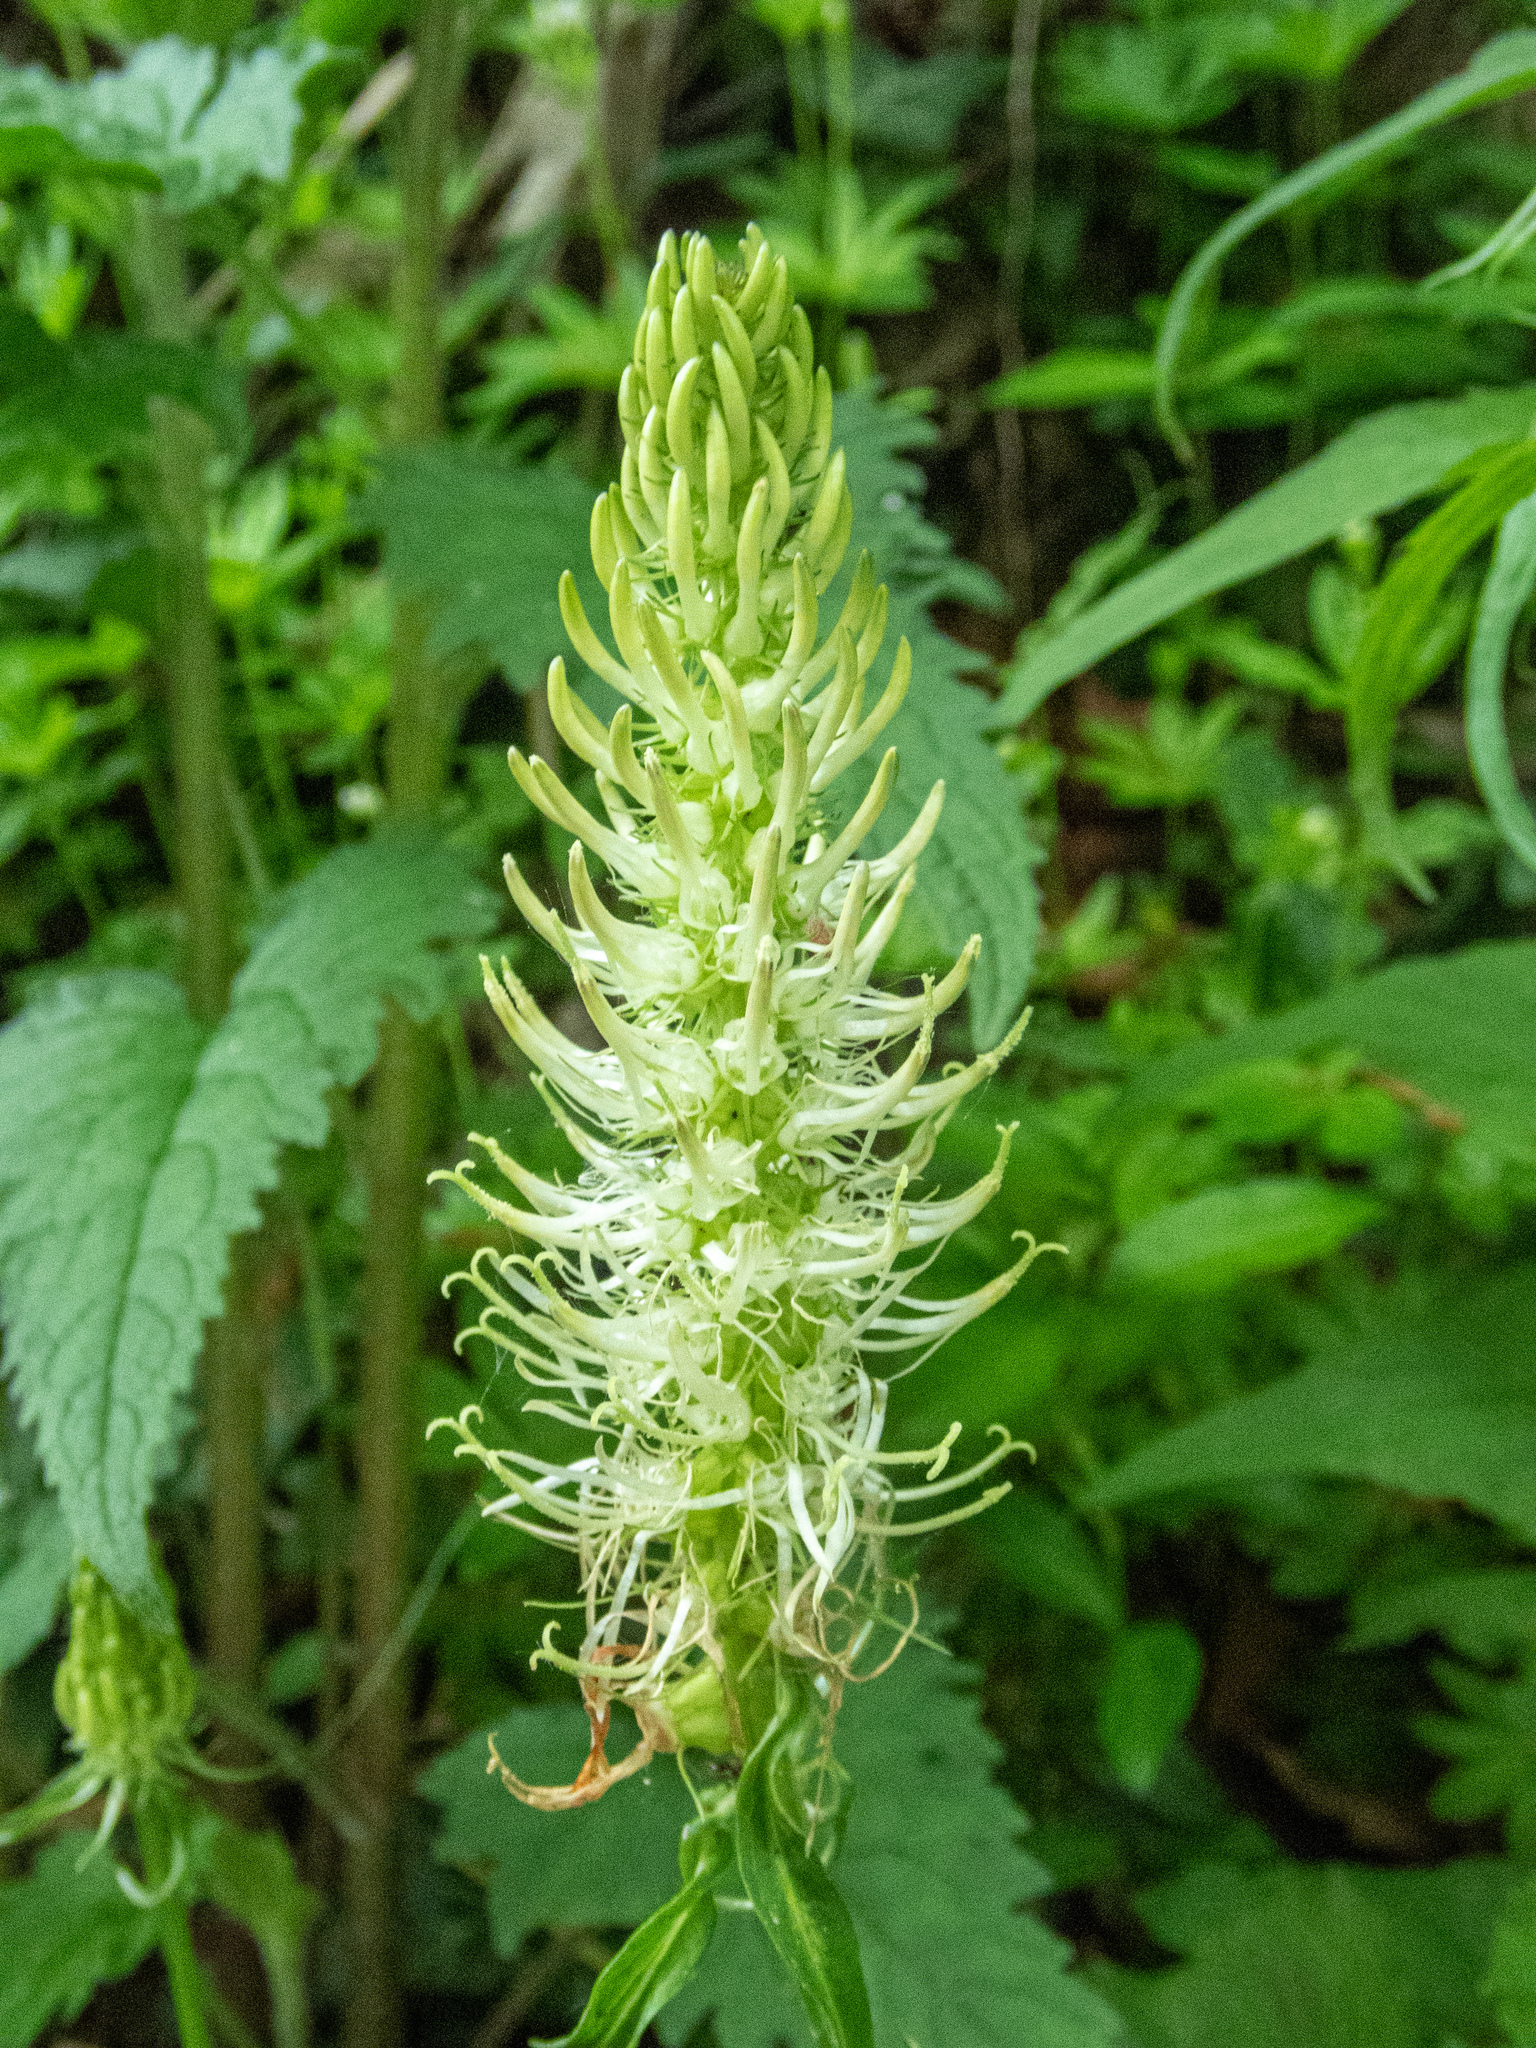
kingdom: Plantae
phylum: Tracheophyta
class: Magnoliopsida
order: Asterales
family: Campanulaceae
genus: Phyteuma
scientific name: Phyteuma spicatum
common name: Spiked rampion
